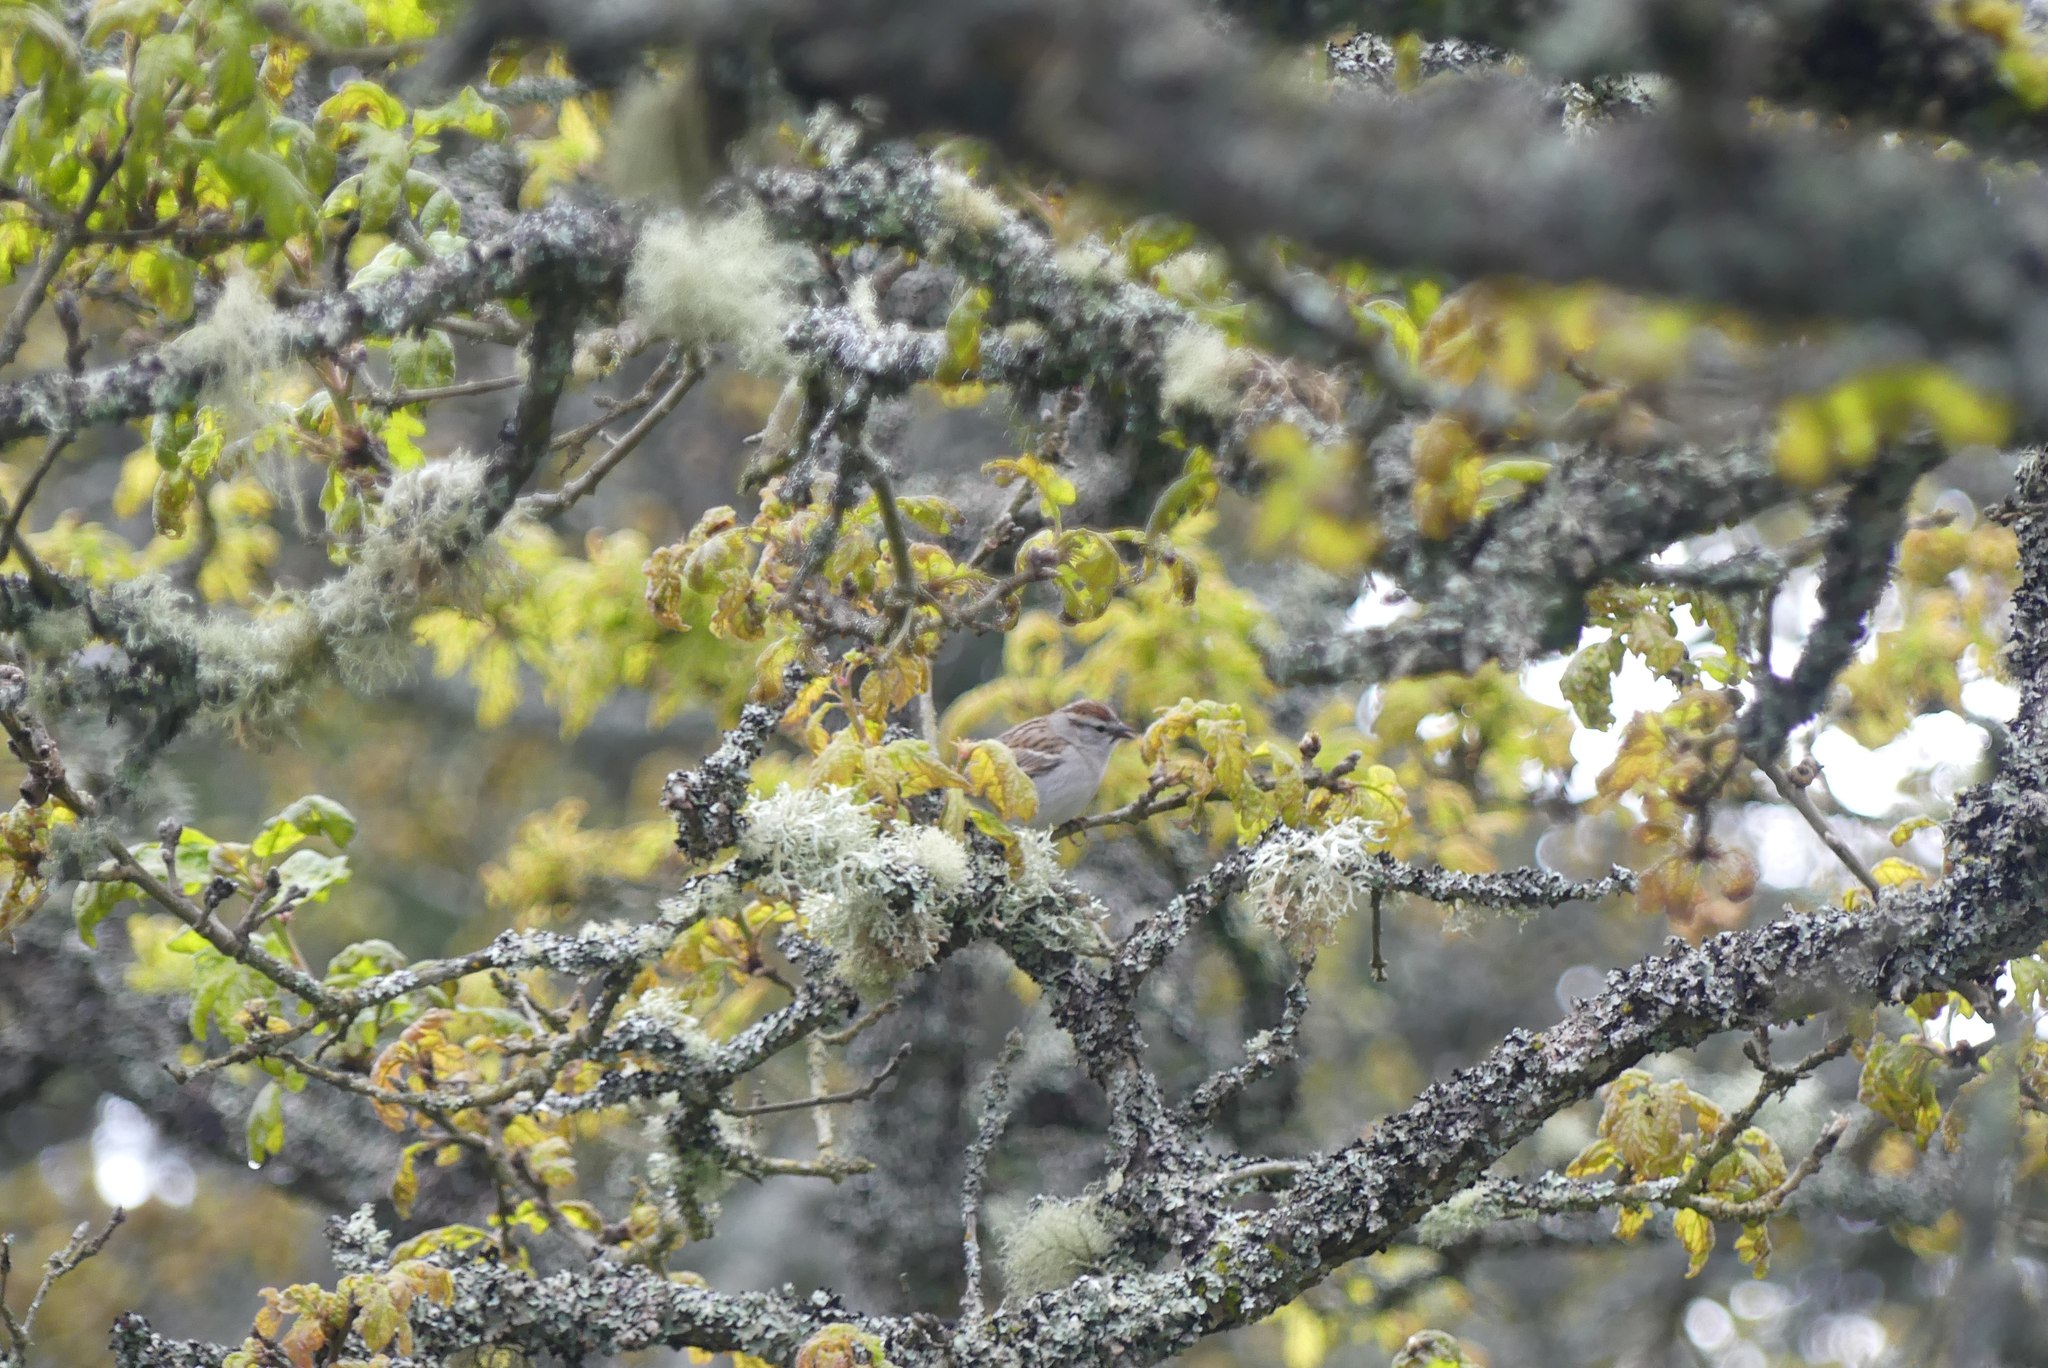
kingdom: Animalia
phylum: Chordata
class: Aves
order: Passeriformes
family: Passerellidae
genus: Spizella
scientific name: Spizella passerina
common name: Chipping sparrow
